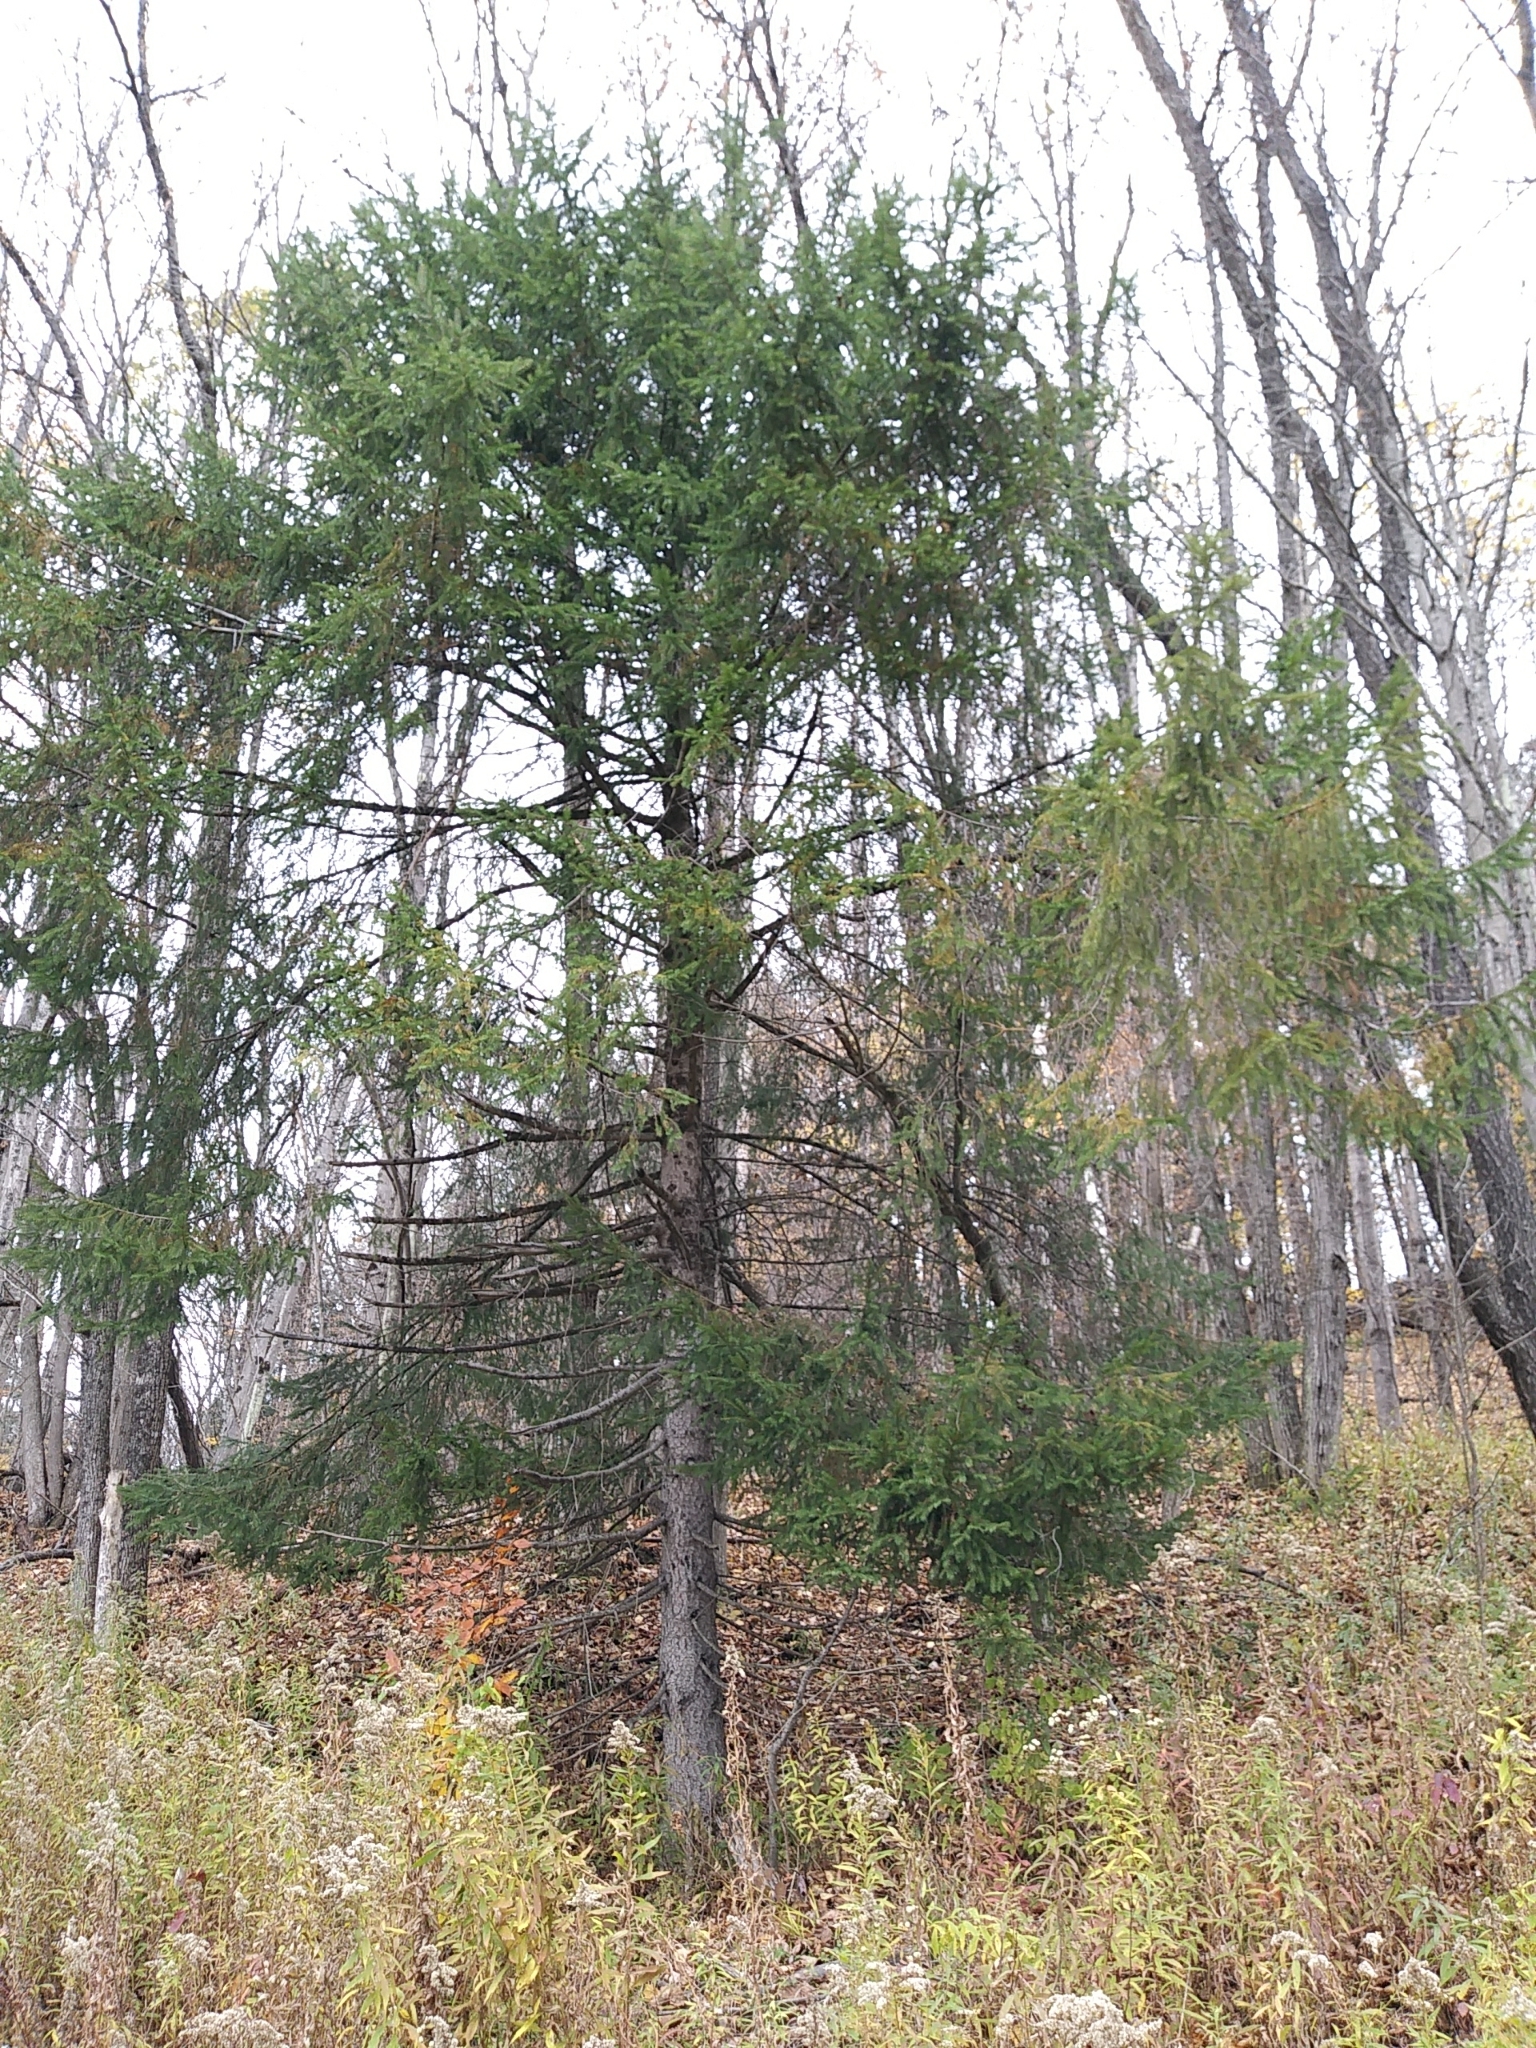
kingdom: Plantae
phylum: Tracheophyta
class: Pinopsida
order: Pinales
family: Pinaceae
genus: Picea
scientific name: Picea rubens
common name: Red spruce
